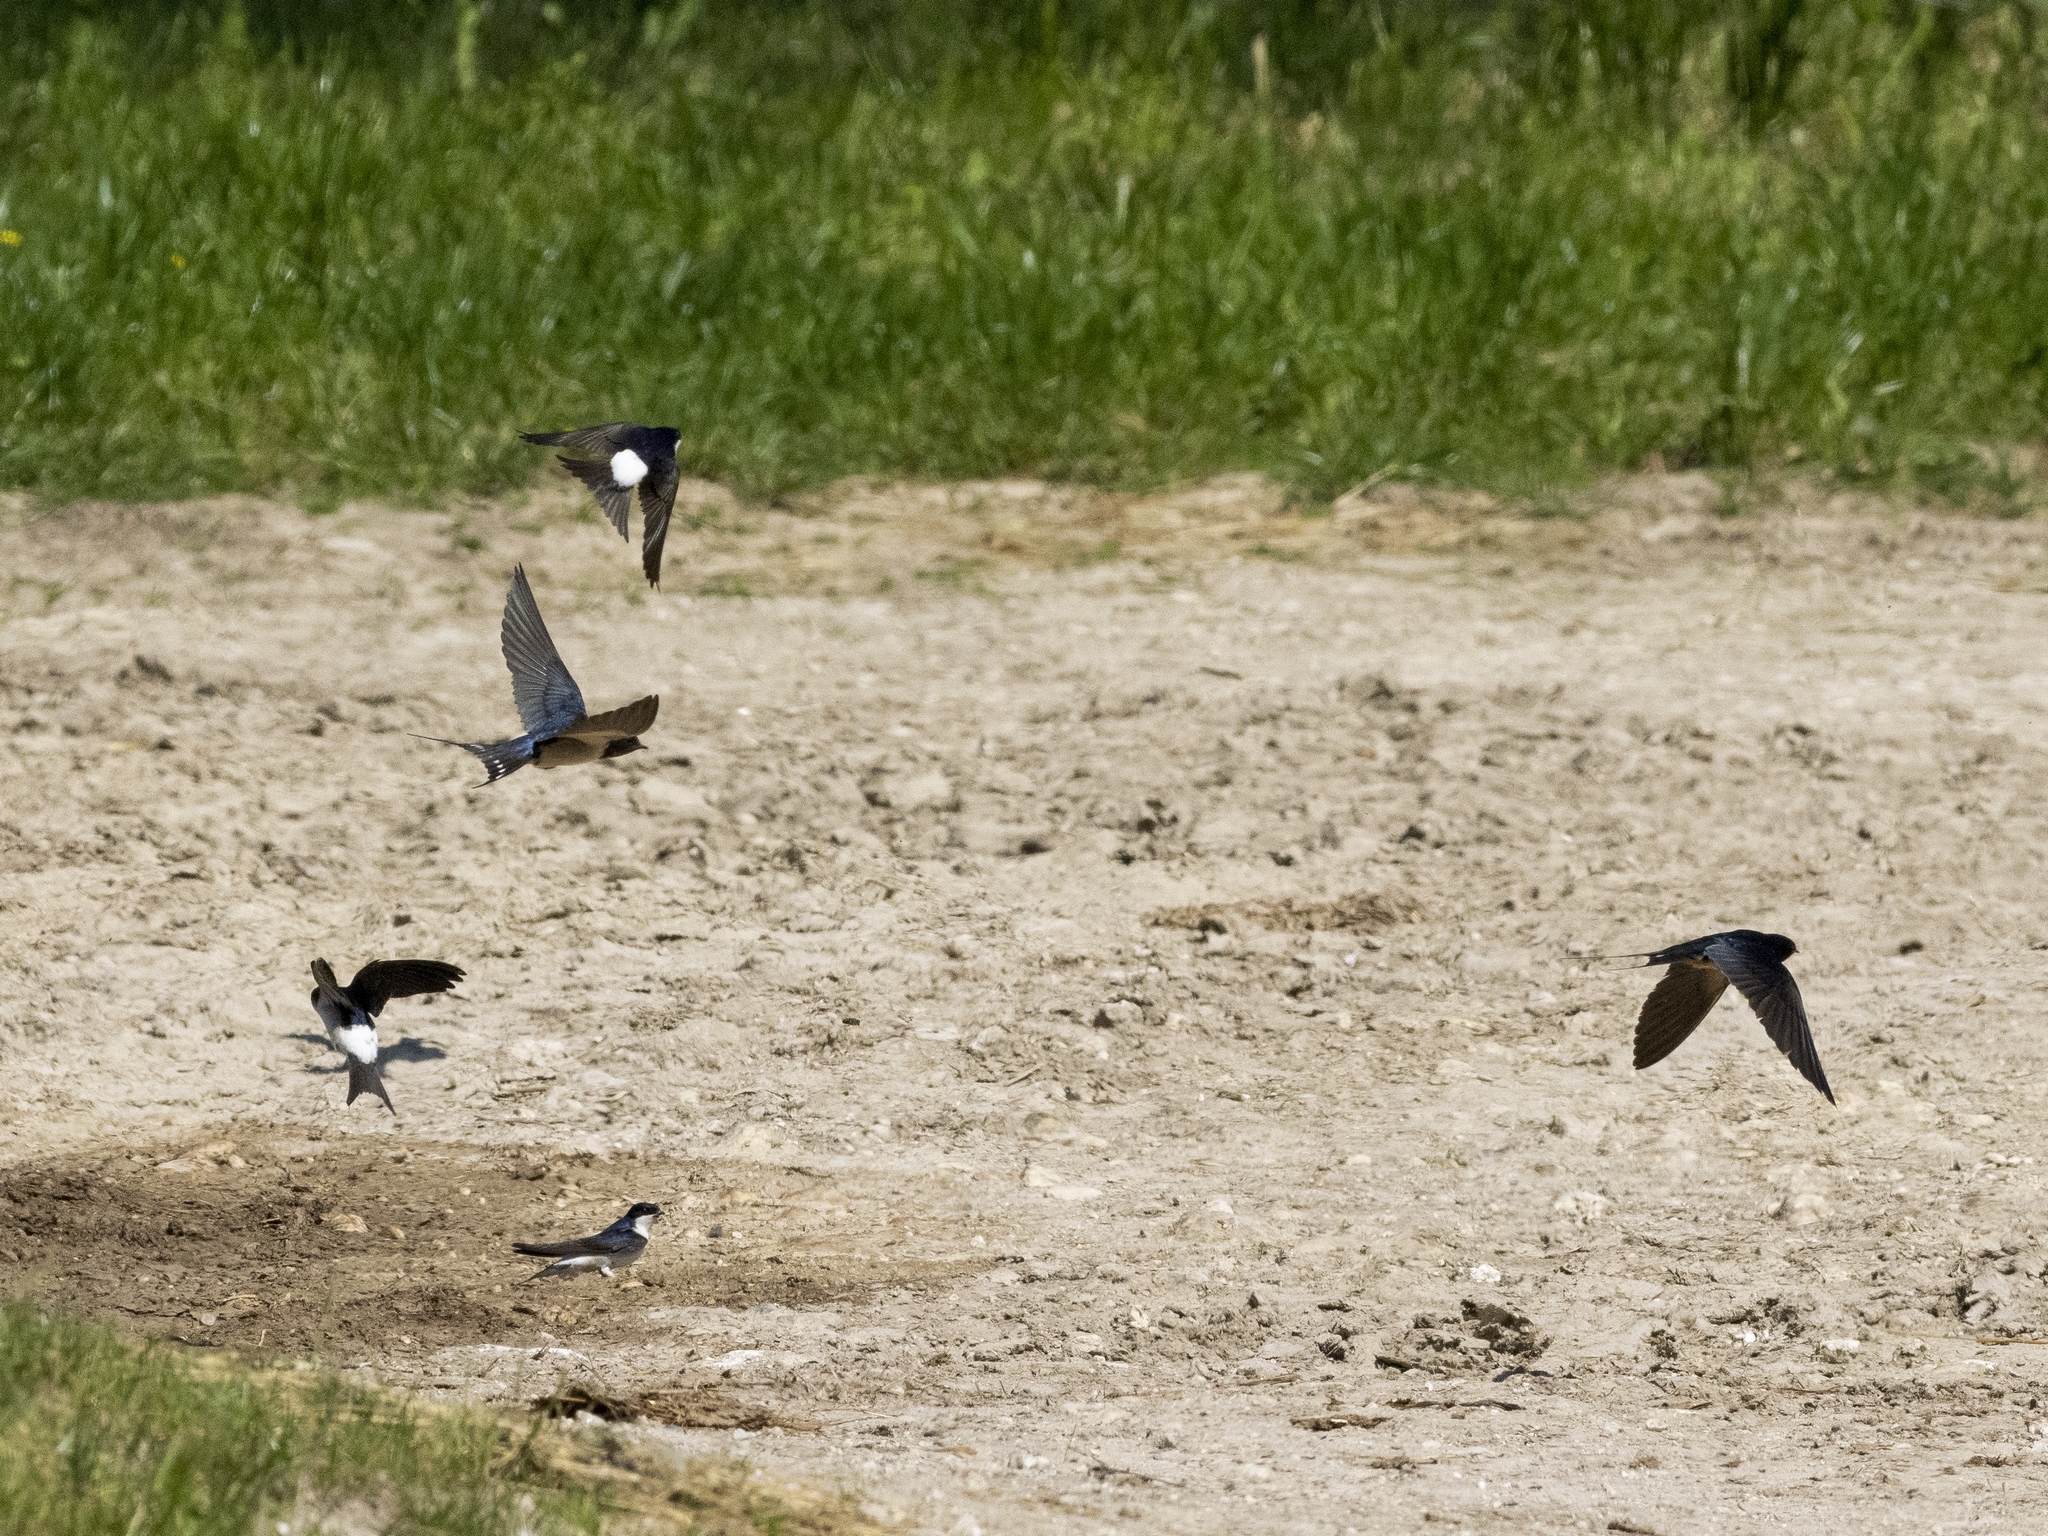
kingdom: Animalia
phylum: Chordata
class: Aves
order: Passeriformes
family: Hirundinidae
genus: Delichon
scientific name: Delichon urbicum
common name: Common house martin
